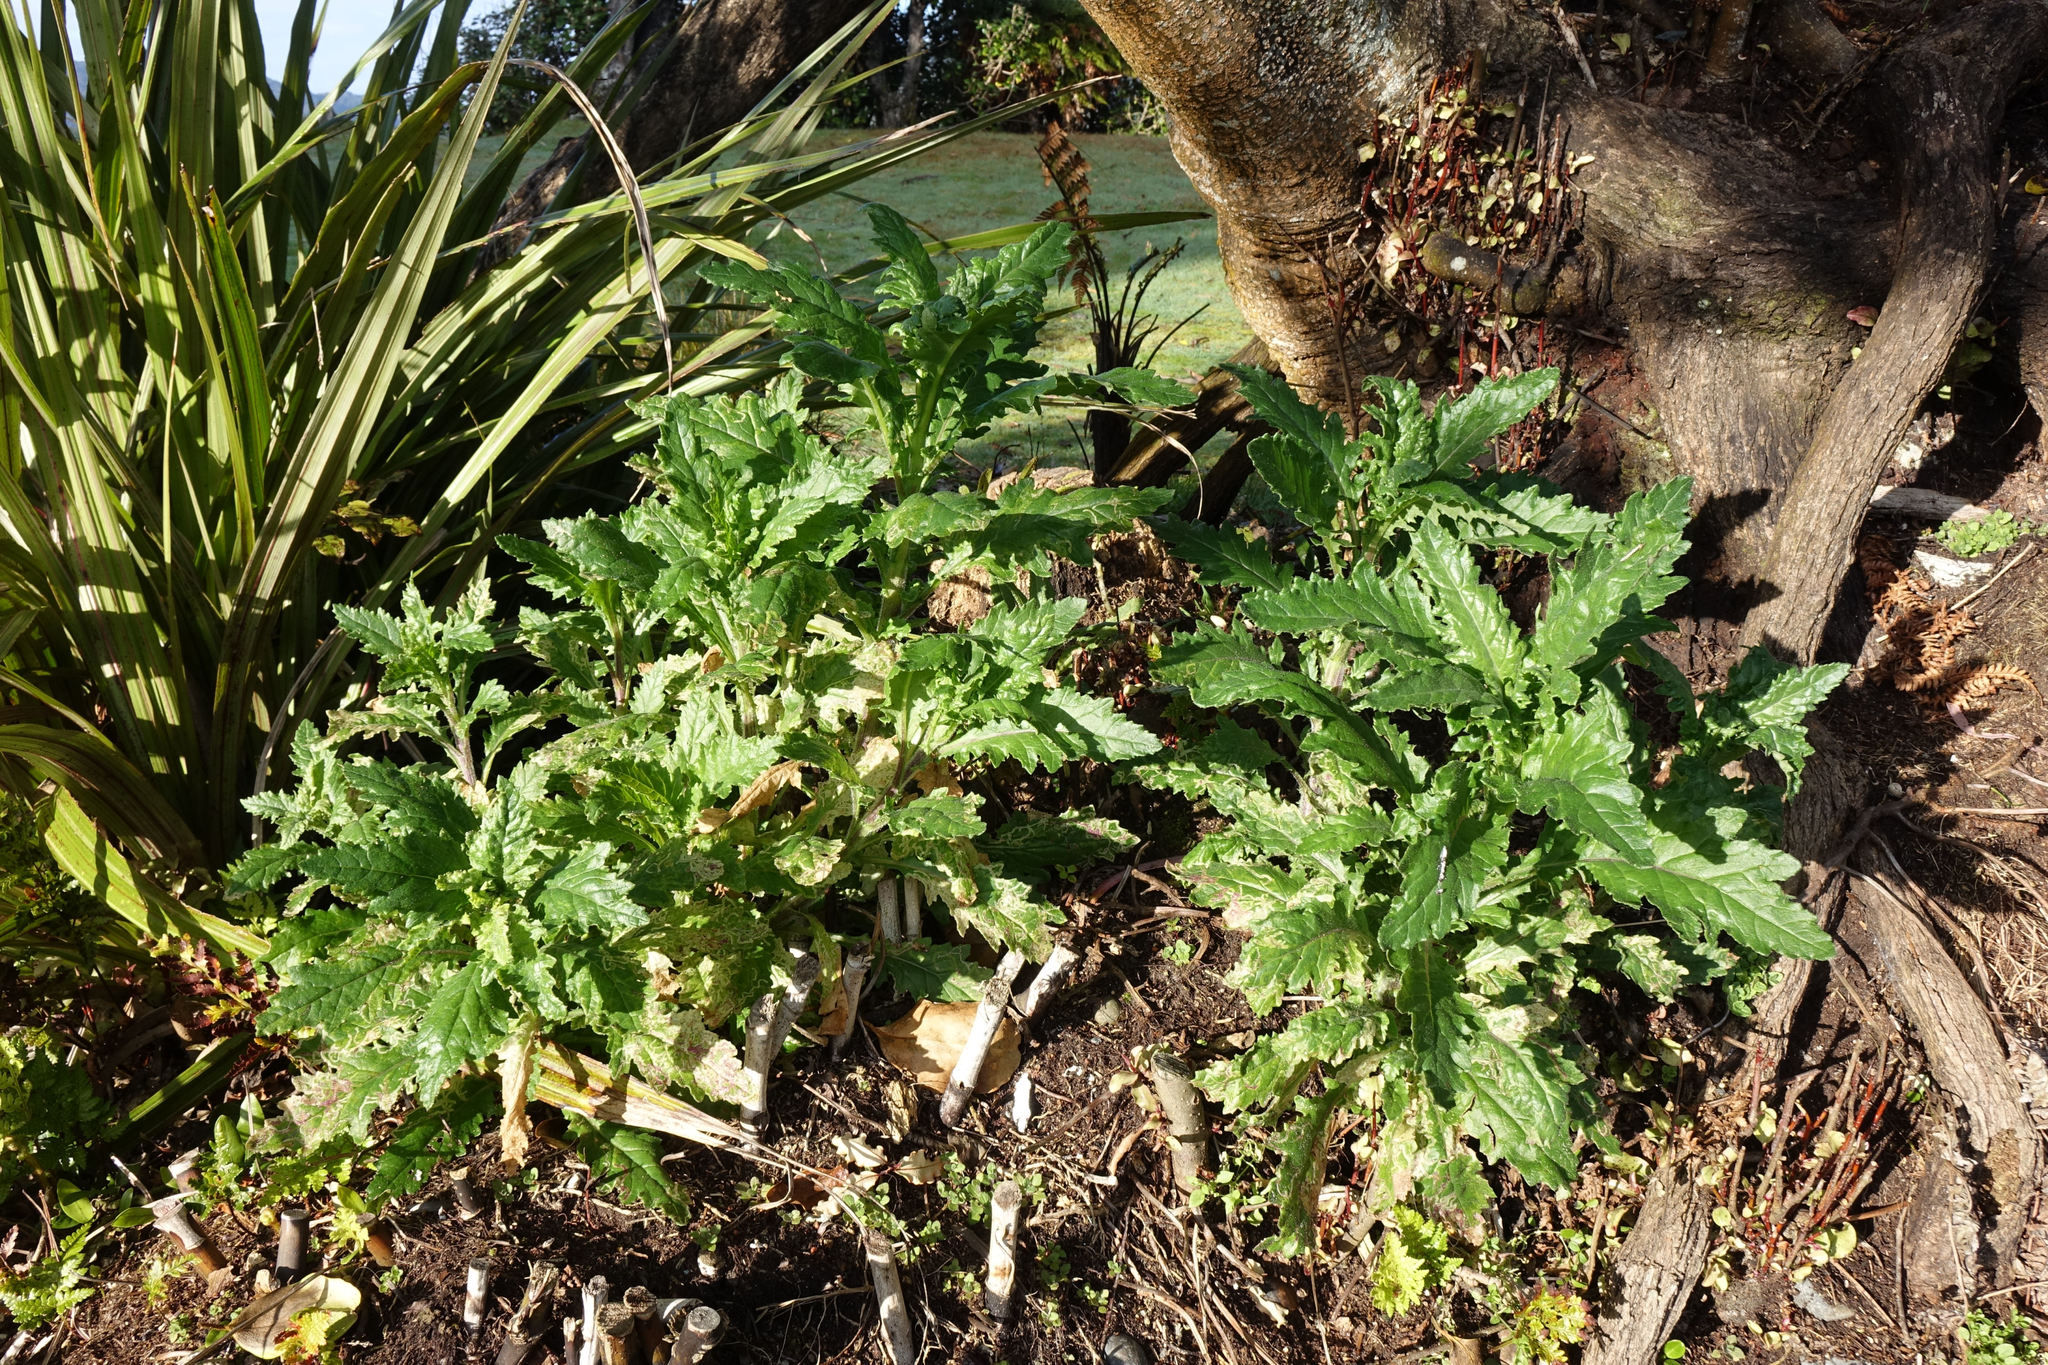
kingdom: Plantae
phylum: Tracheophyta
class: Magnoliopsida
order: Asterales
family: Asteraceae
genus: Senecio
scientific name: Senecio biserratus
